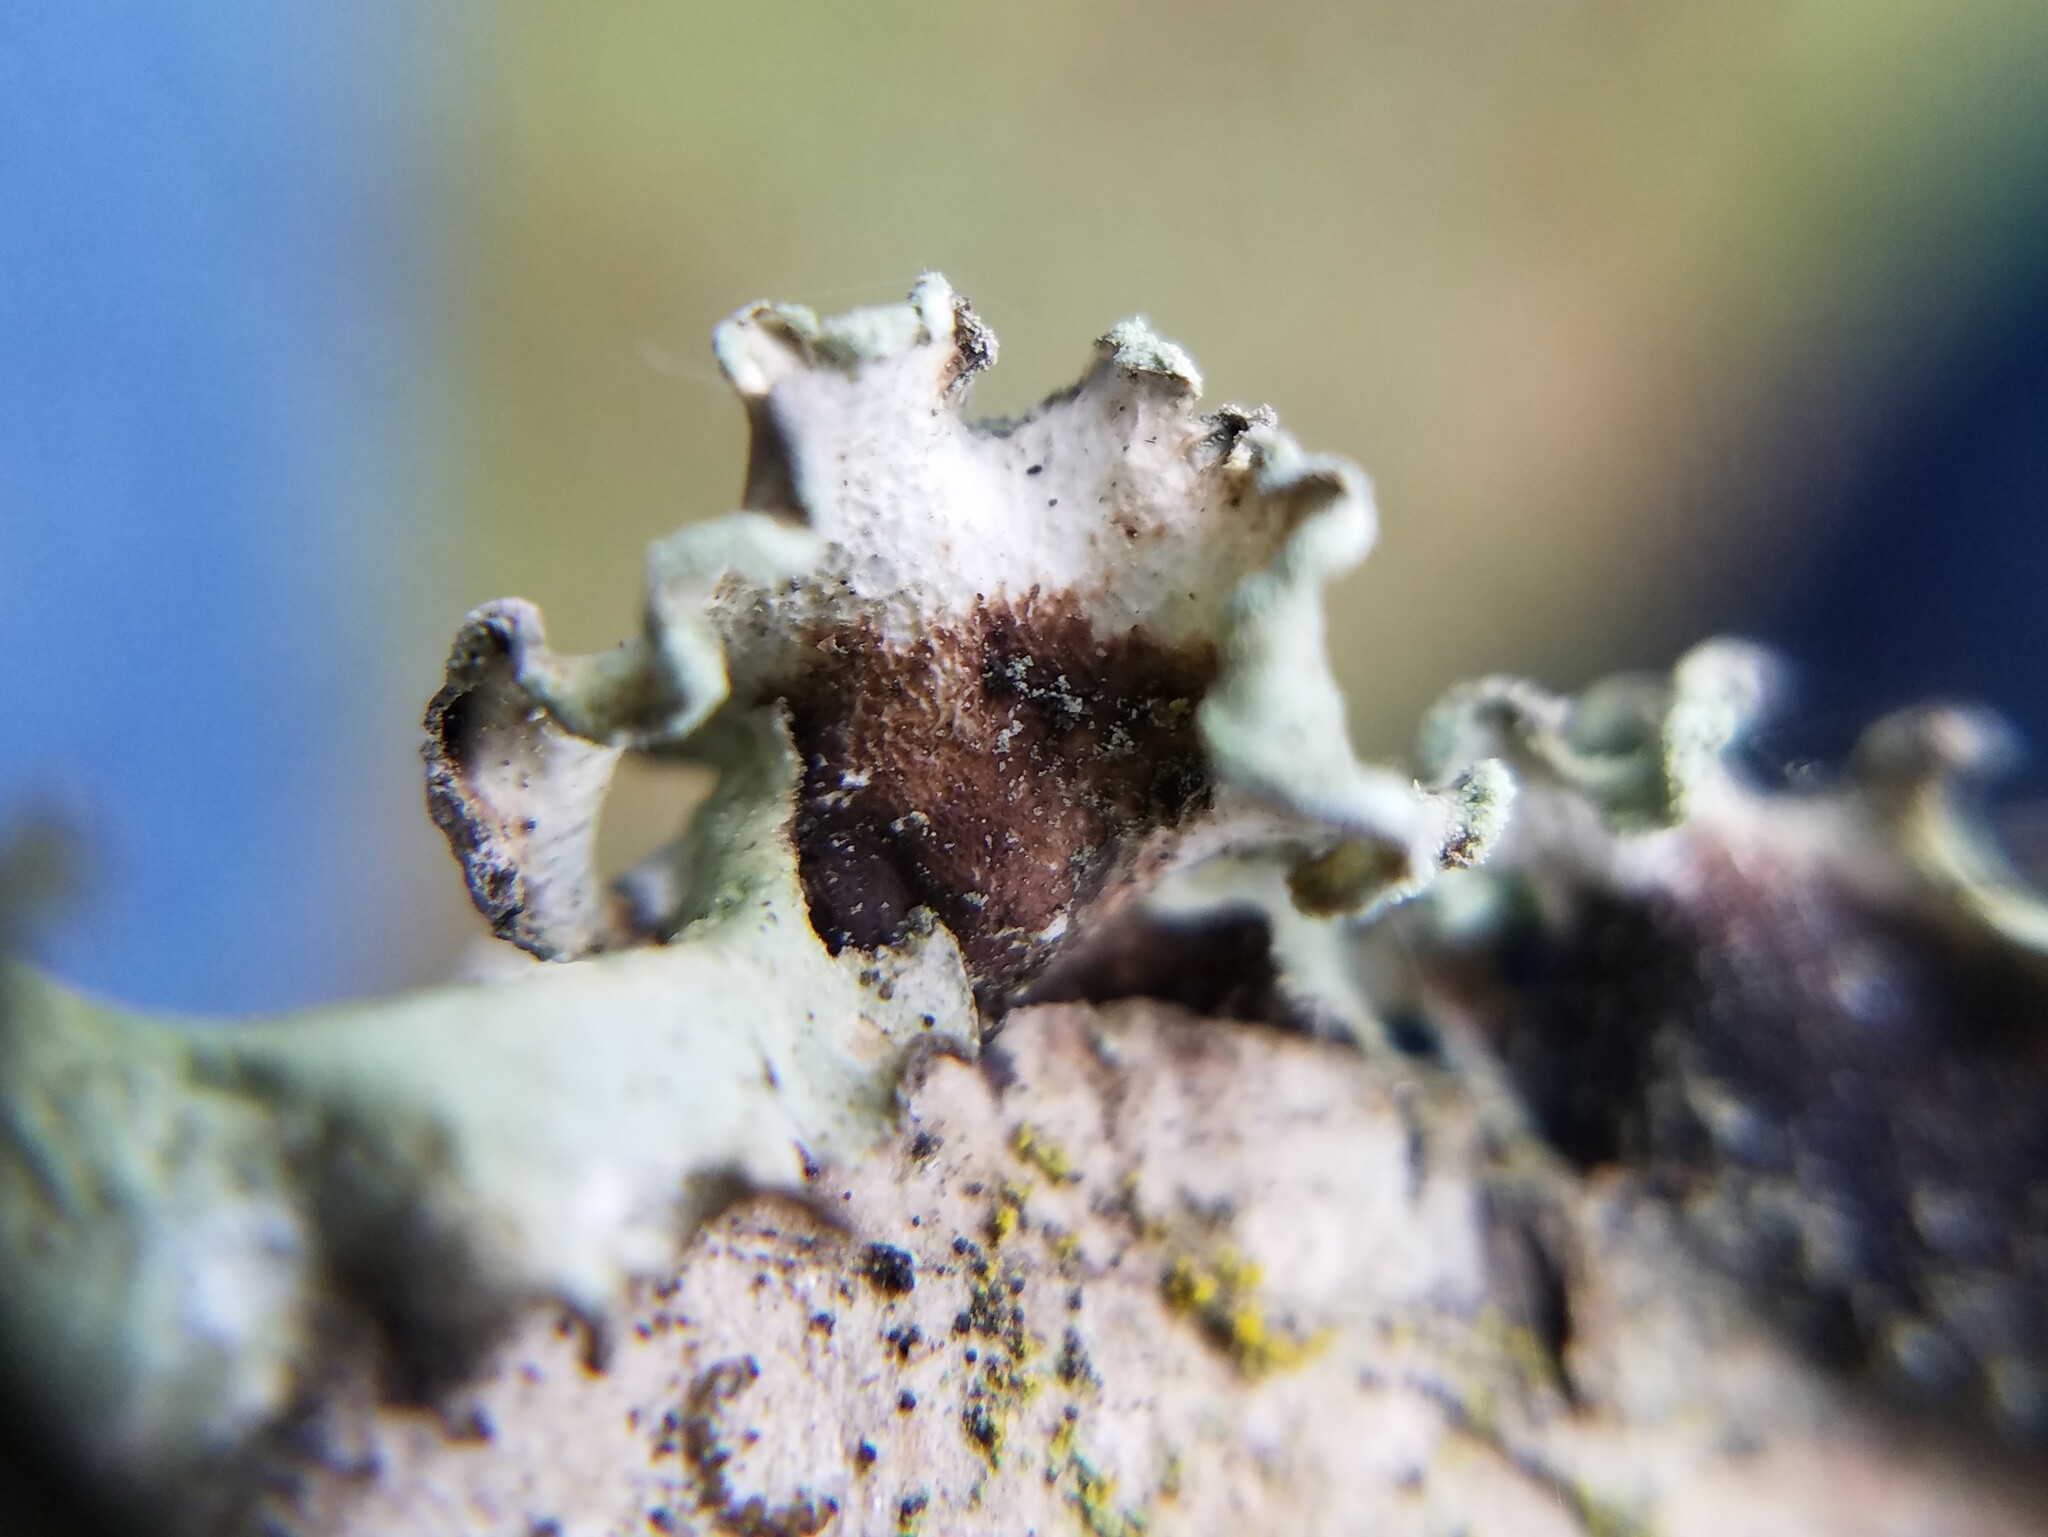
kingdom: Fungi
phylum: Ascomycota
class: Lecanoromycetes
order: Lecanorales
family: Parmeliaceae
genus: Parmotrema
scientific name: Parmotrema austrosinense
